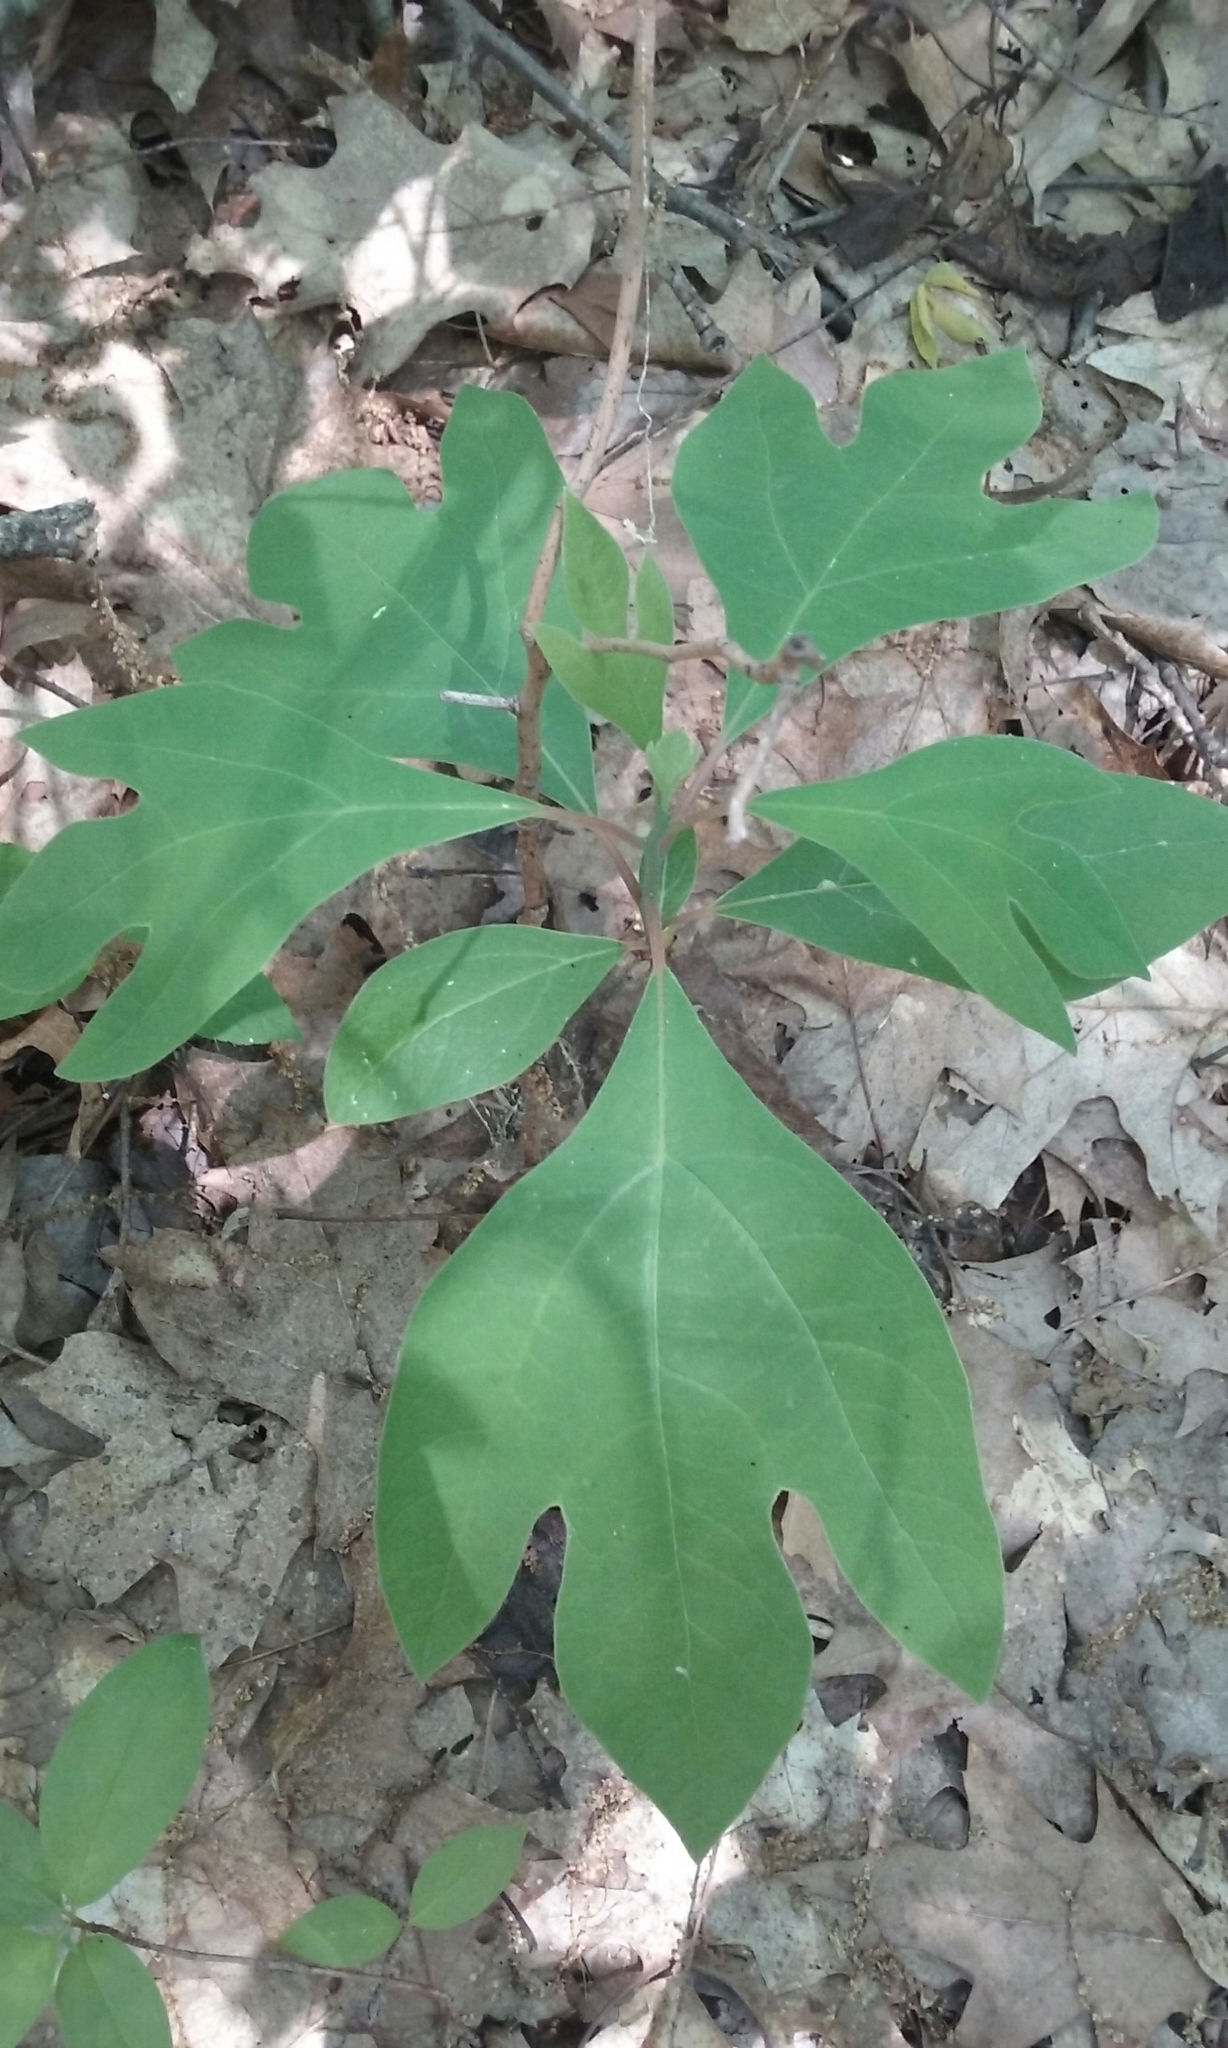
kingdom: Plantae
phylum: Tracheophyta
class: Magnoliopsida
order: Laurales
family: Lauraceae
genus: Sassafras
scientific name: Sassafras albidum
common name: Sassafras
